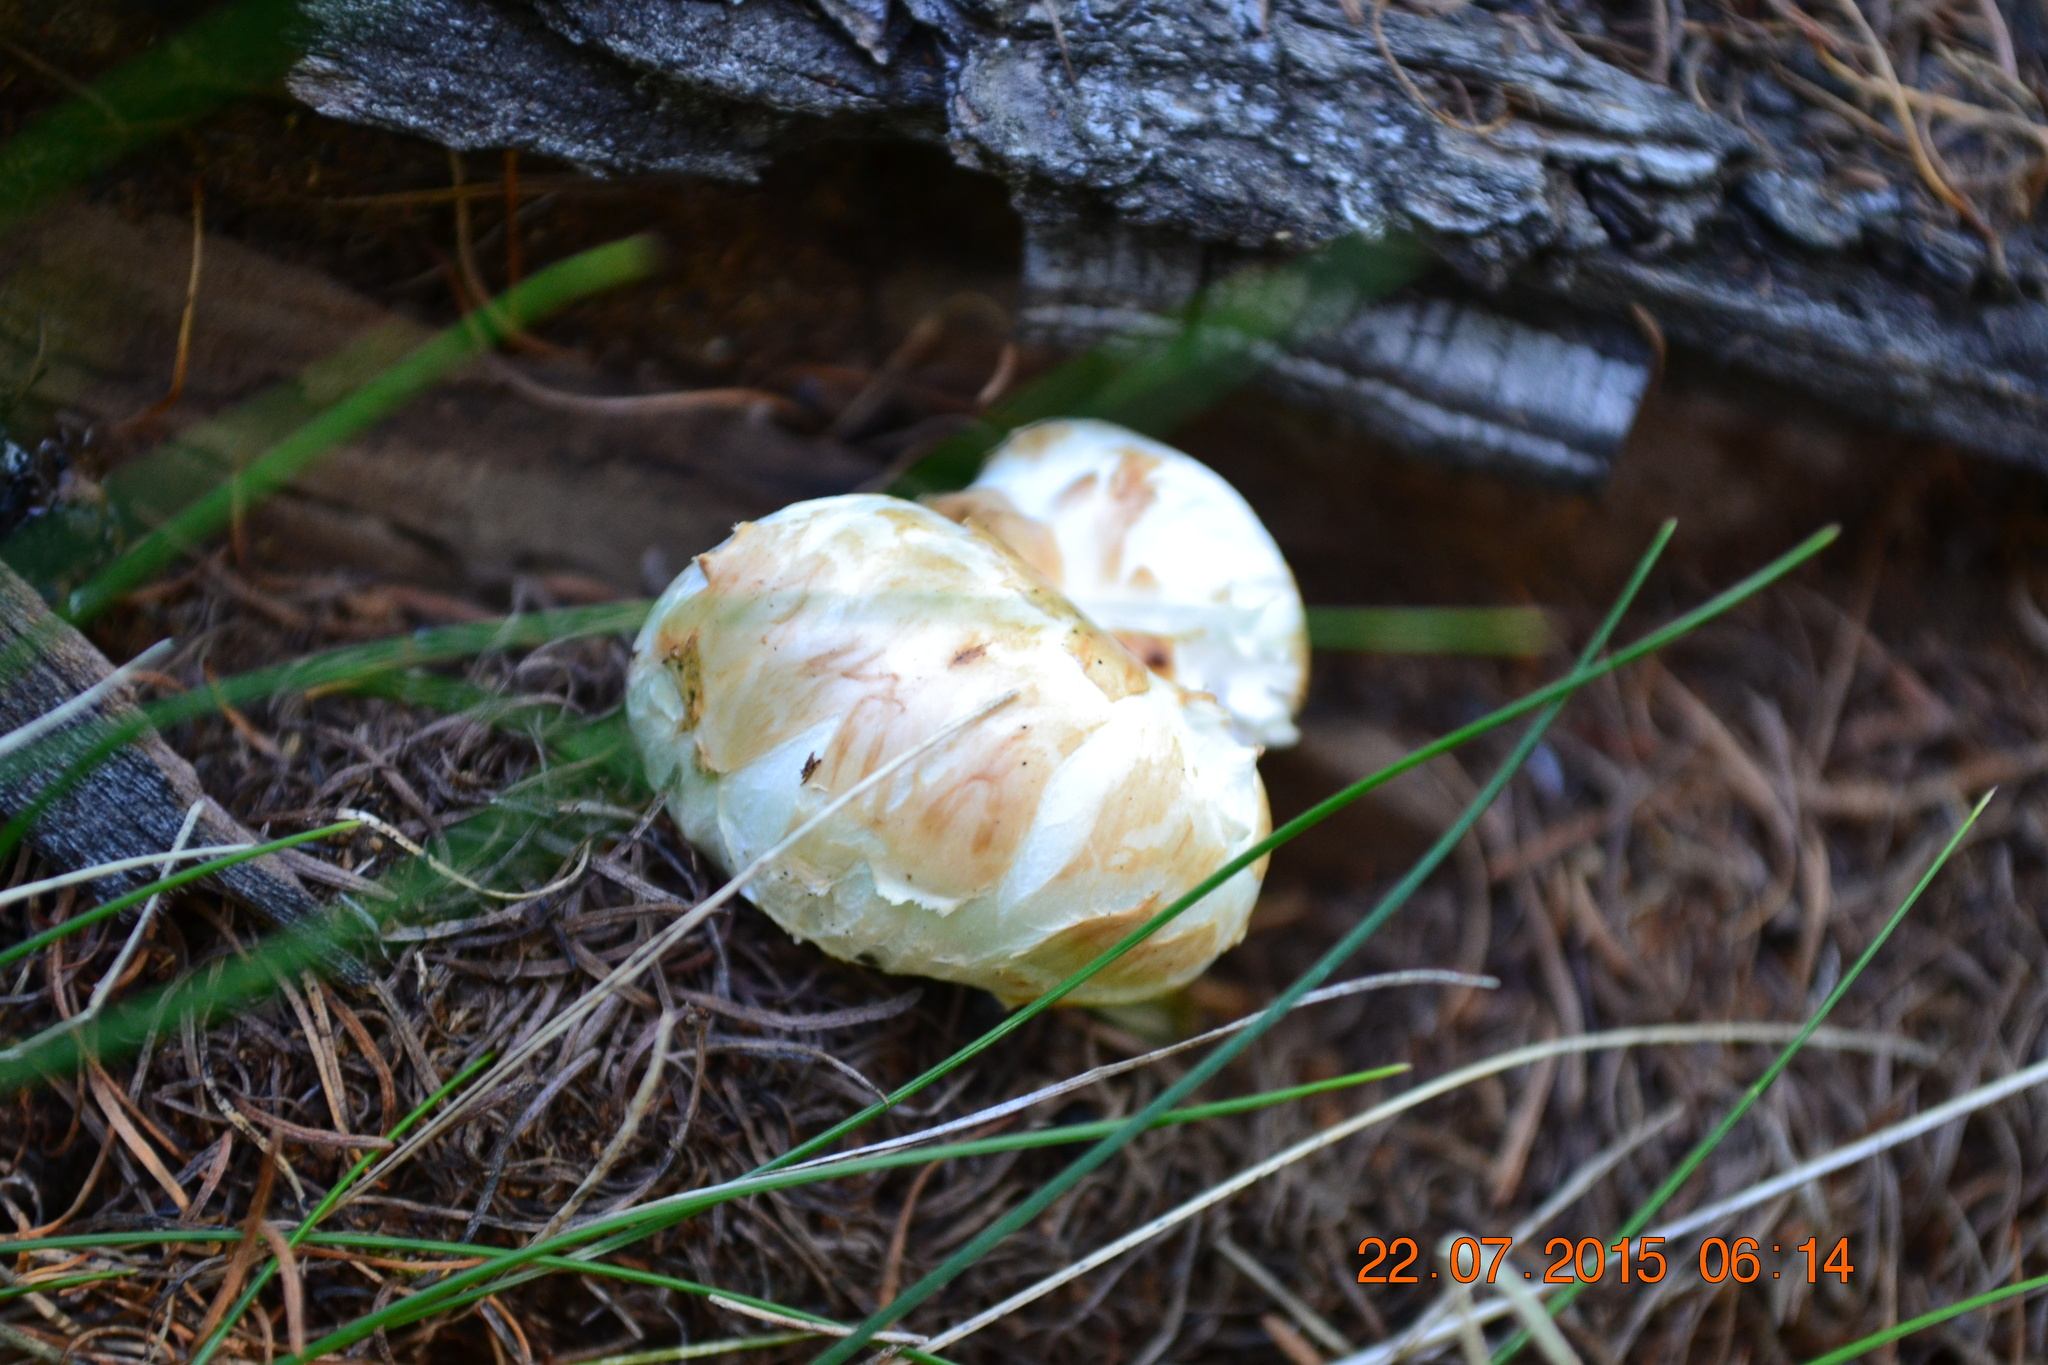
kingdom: Fungi
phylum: Basidiomycota
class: Agaricomycetes
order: Gloeophyllales
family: Gloeophyllaceae
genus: Neolentinus
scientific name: Neolentinus lepideus
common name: Scaly sawgill
